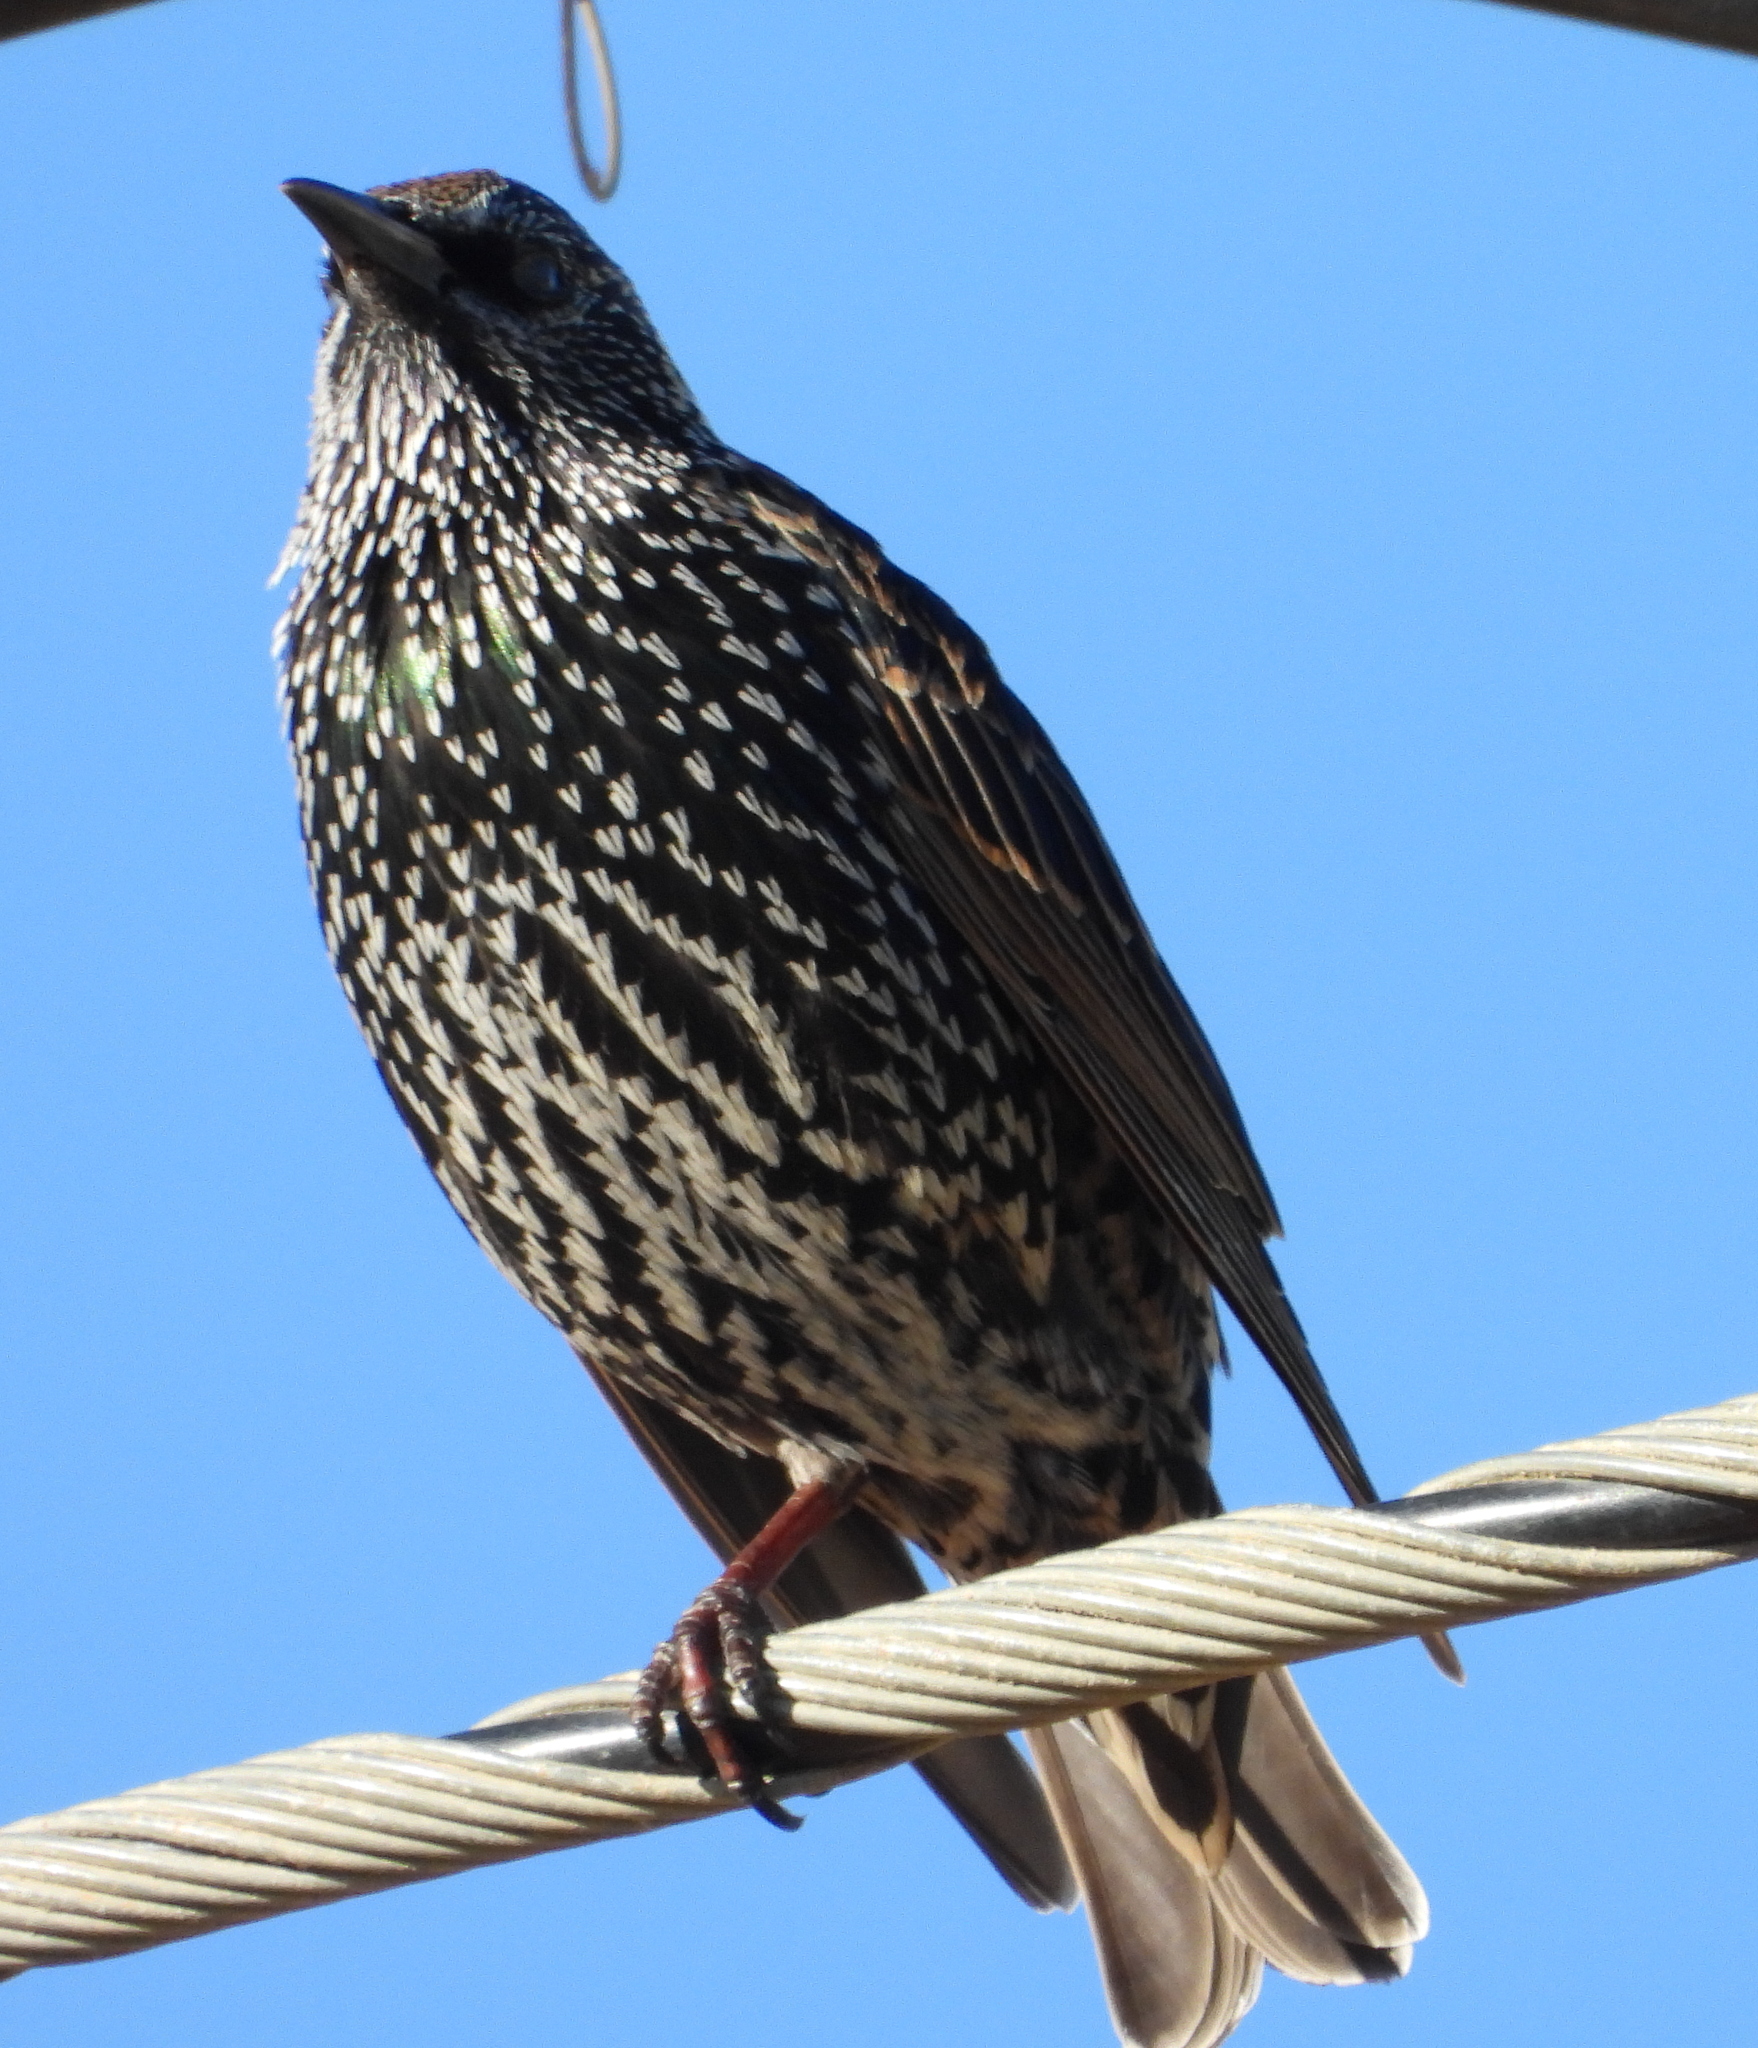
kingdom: Animalia
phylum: Chordata
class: Aves
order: Passeriformes
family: Sturnidae
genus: Sturnus
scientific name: Sturnus vulgaris
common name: Common starling
